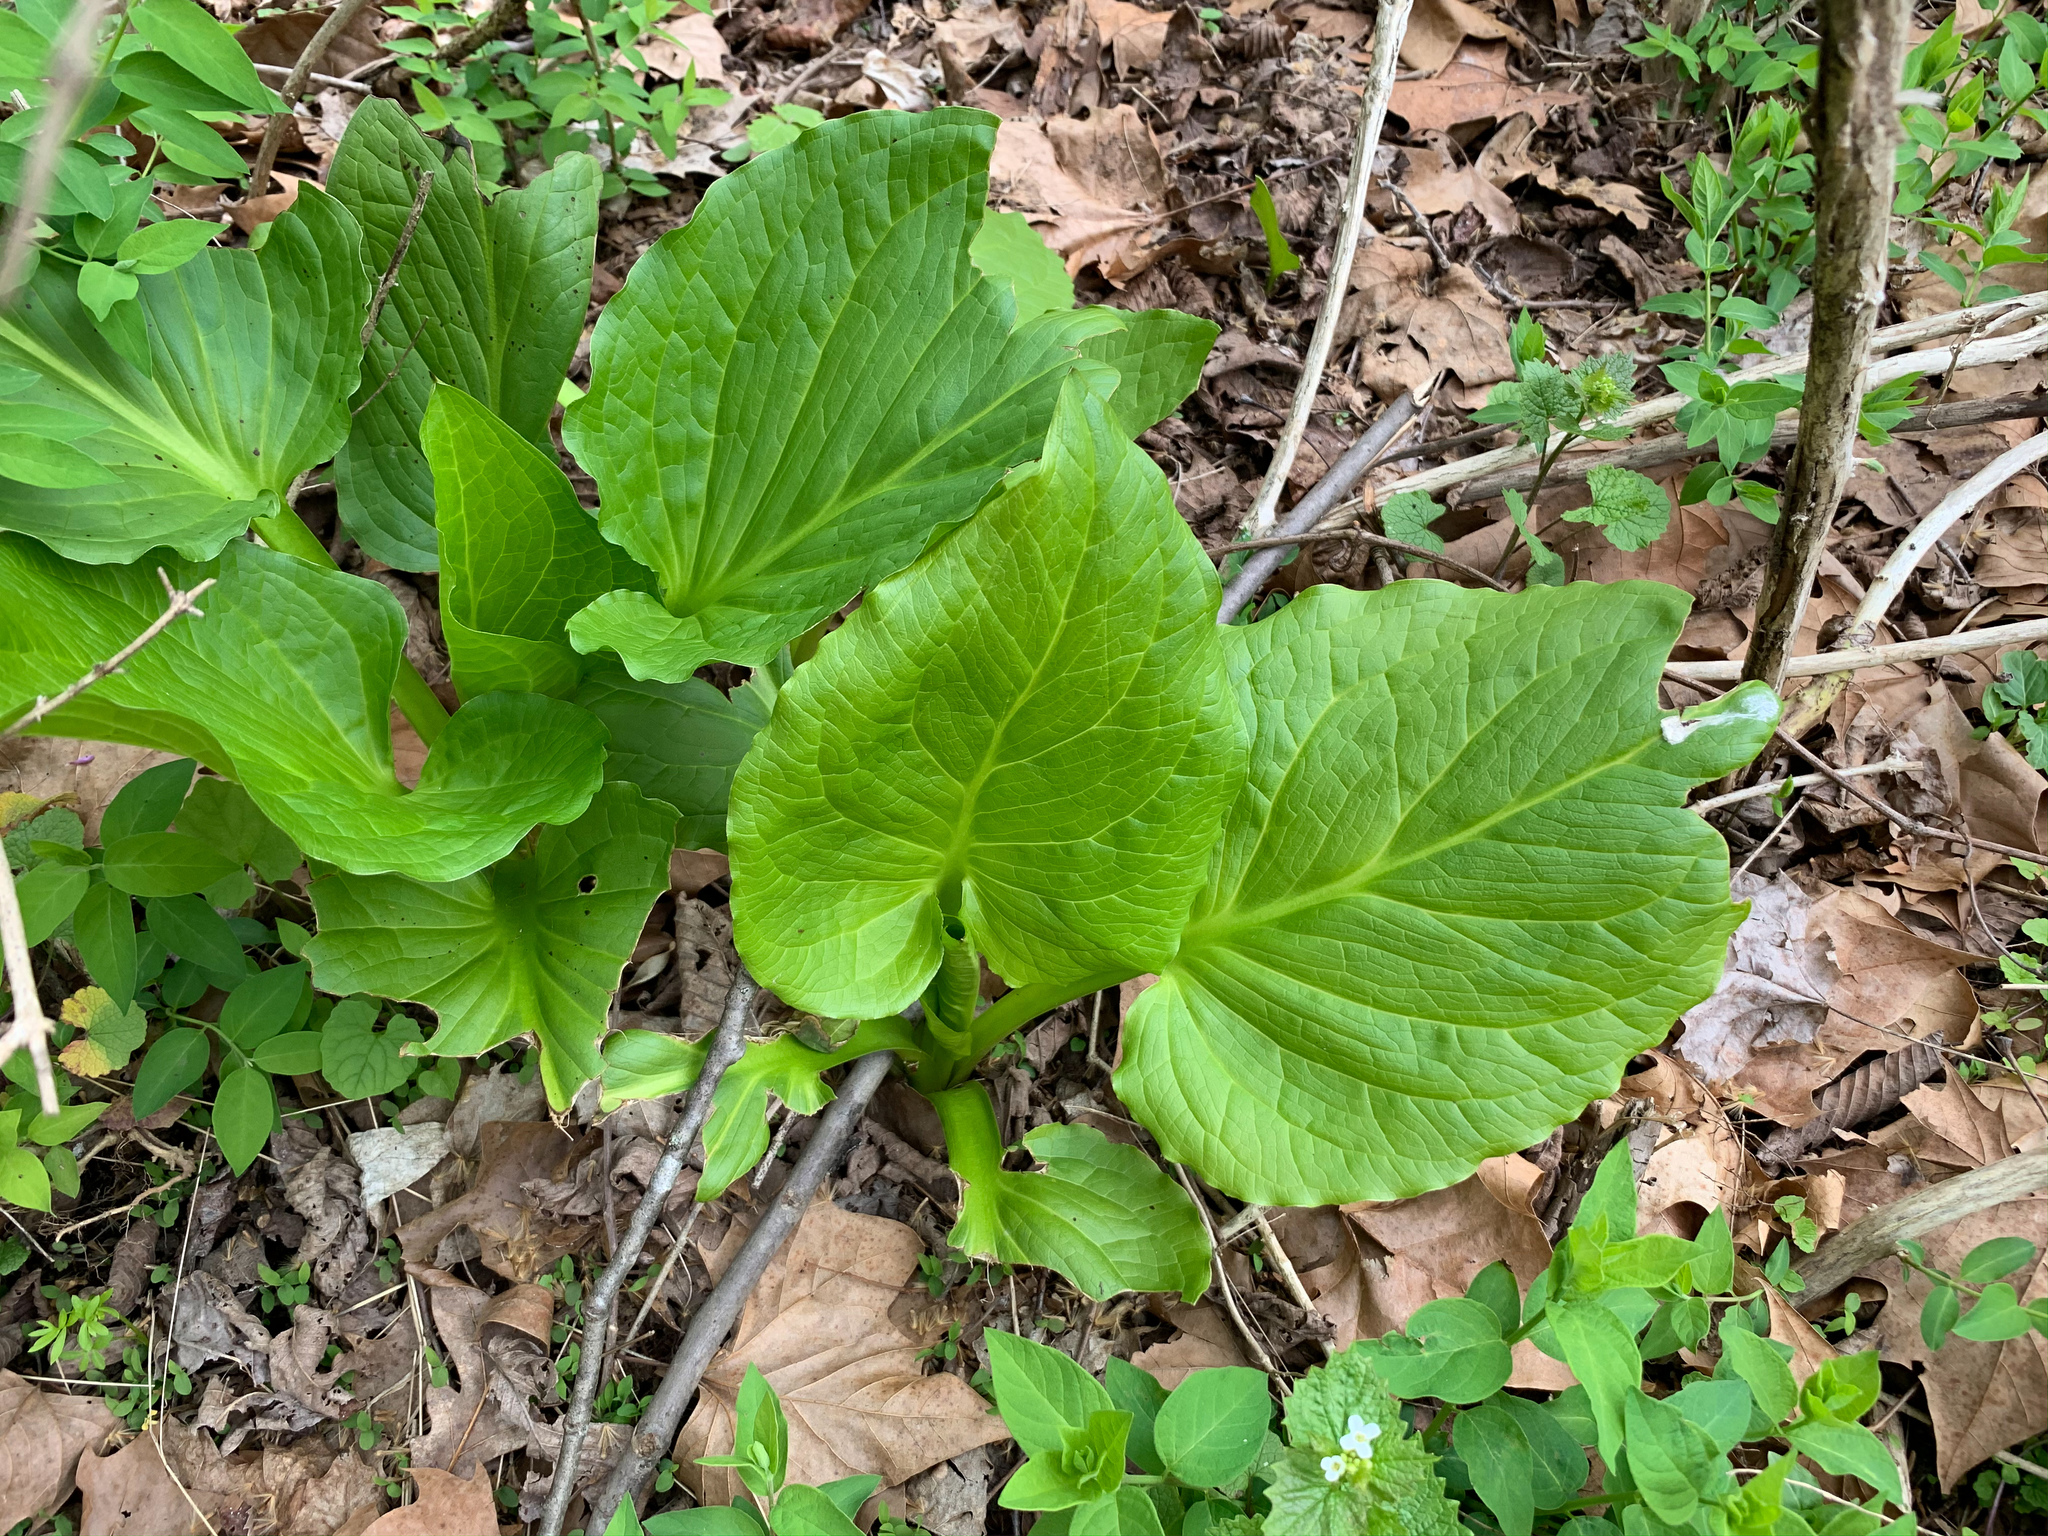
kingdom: Plantae
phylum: Tracheophyta
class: Liliopsida
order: Alismatales
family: Araceae
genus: Symplocarpus
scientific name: Symplocarpus foetidus
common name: Eastern skunk cabbage
